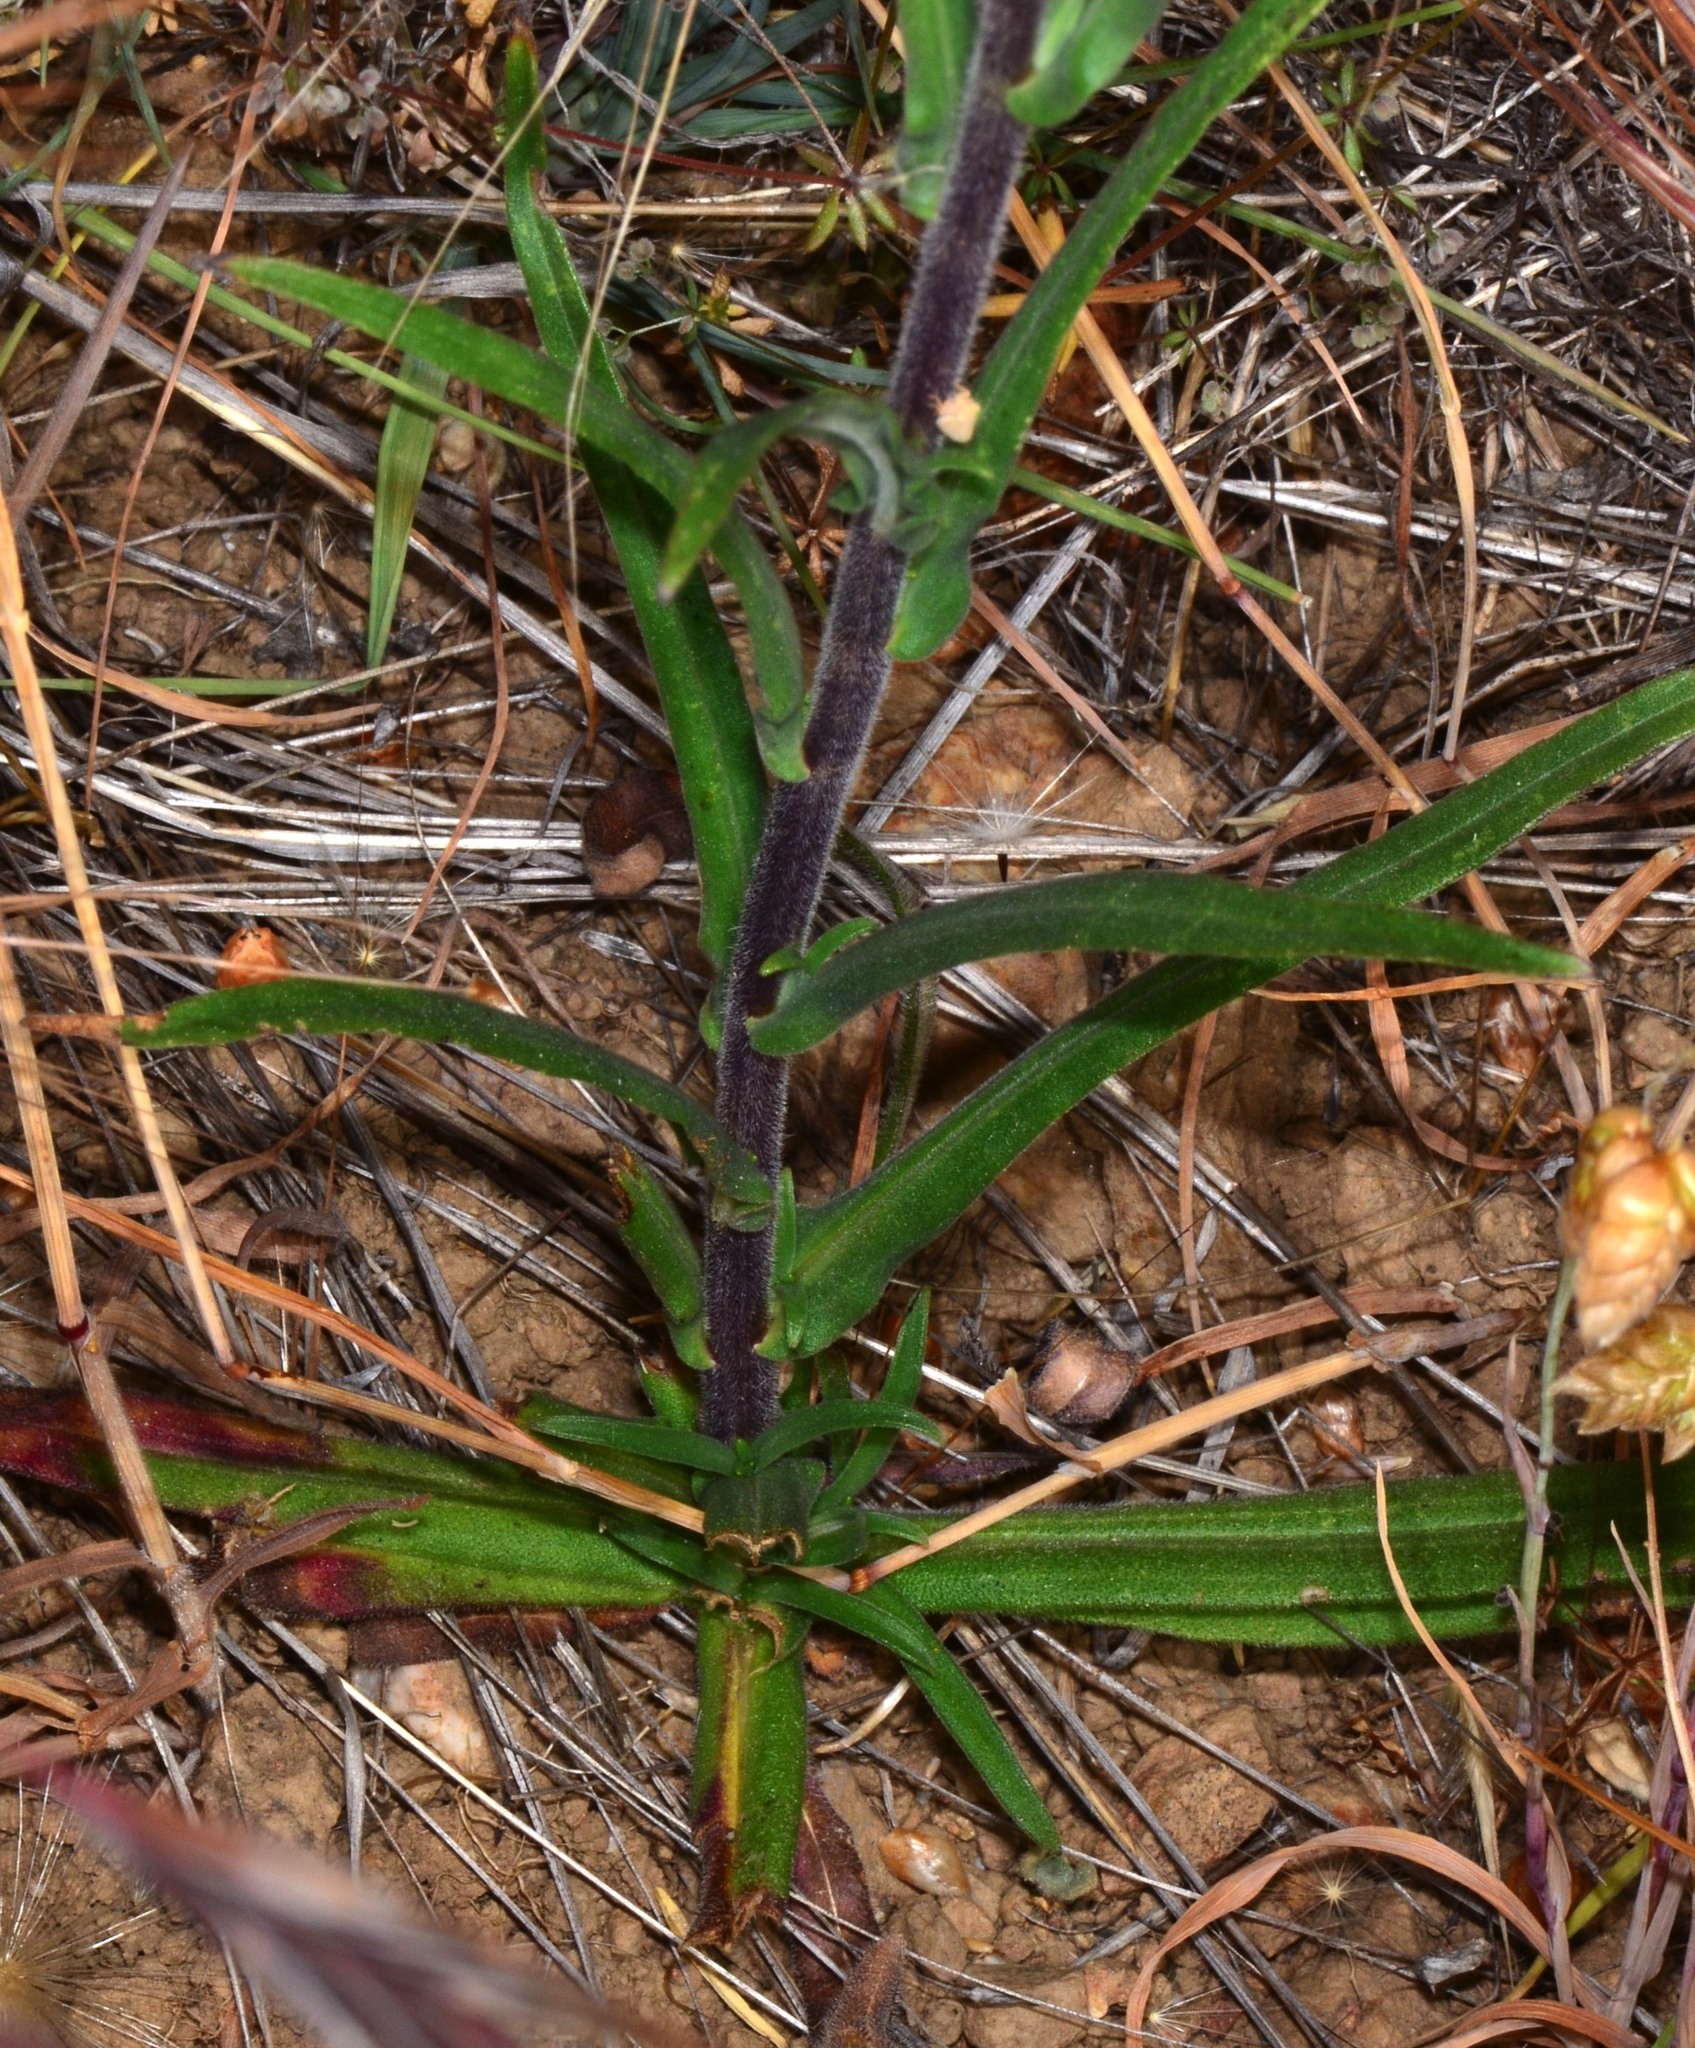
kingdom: Plantae
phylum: Tracheophyta
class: Magnoliopsida
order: Asterales
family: Asteraceae
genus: Anisocarpus
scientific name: Anisocarpus madioides
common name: Woodland madia
